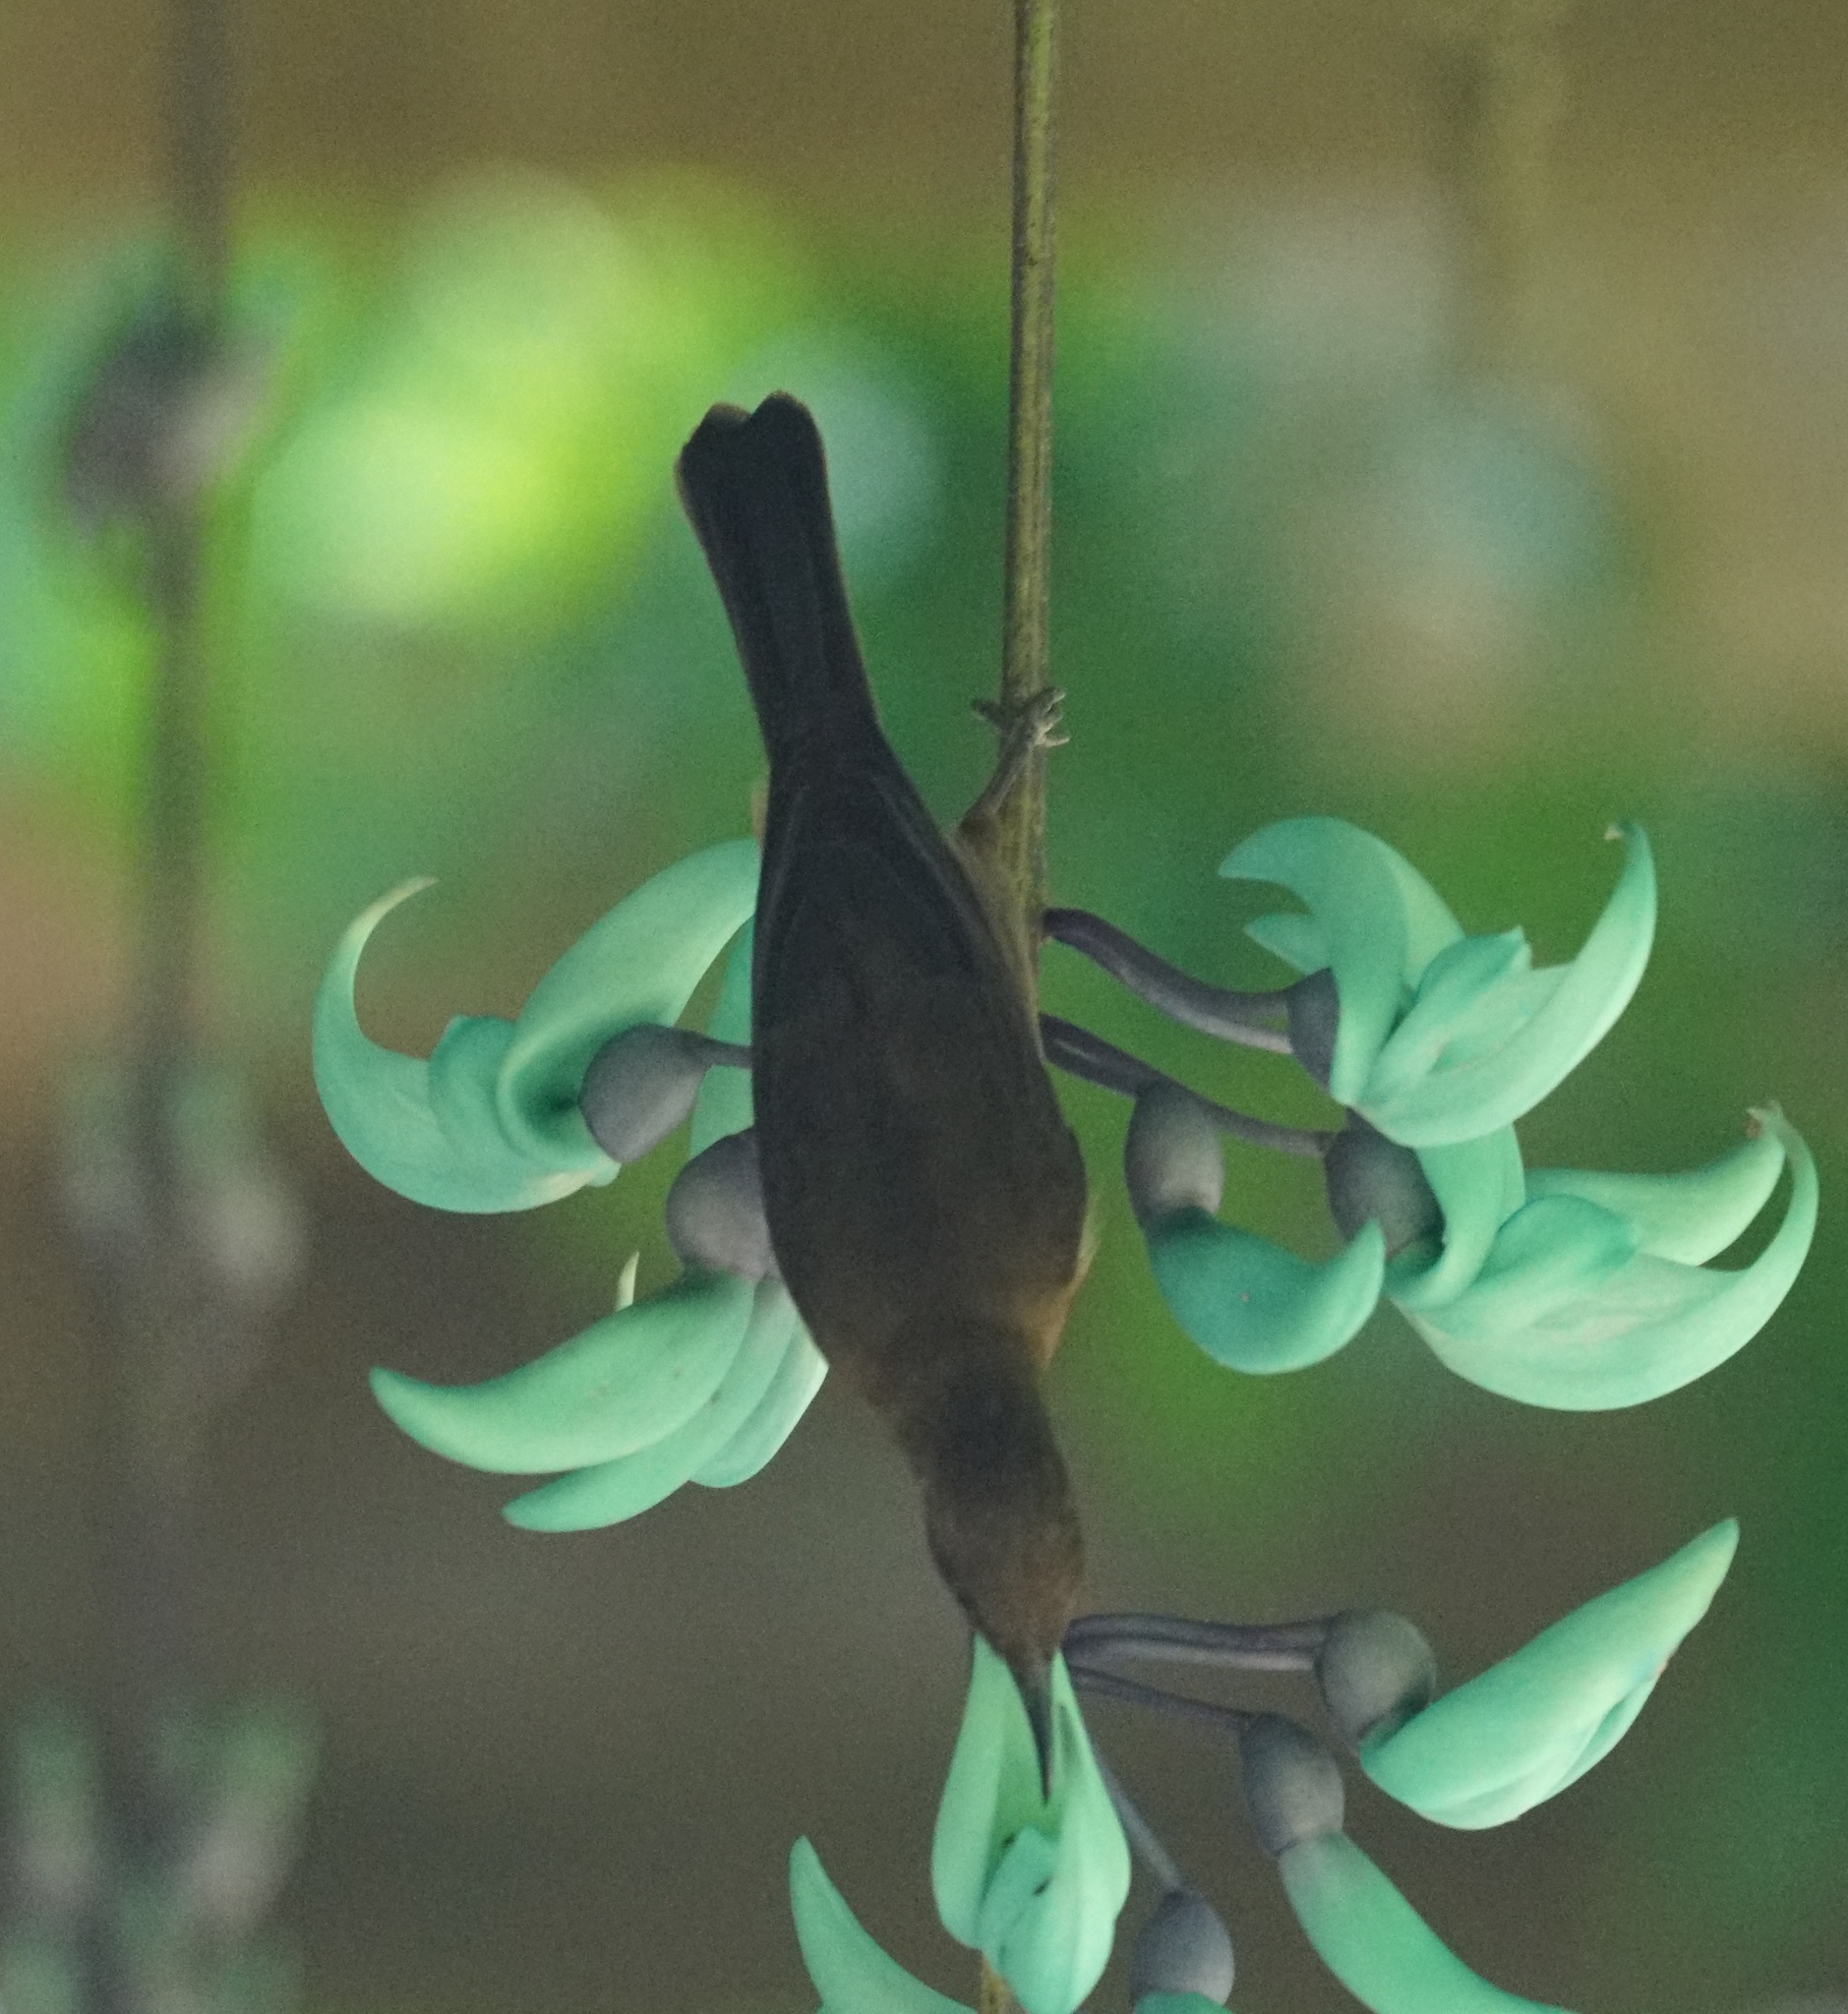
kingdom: Animalia
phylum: Chordata
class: Aves
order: Passeriformes
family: Meliphagidae
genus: Myzomela
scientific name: Myzomela obscura
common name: Dusky myzomela
